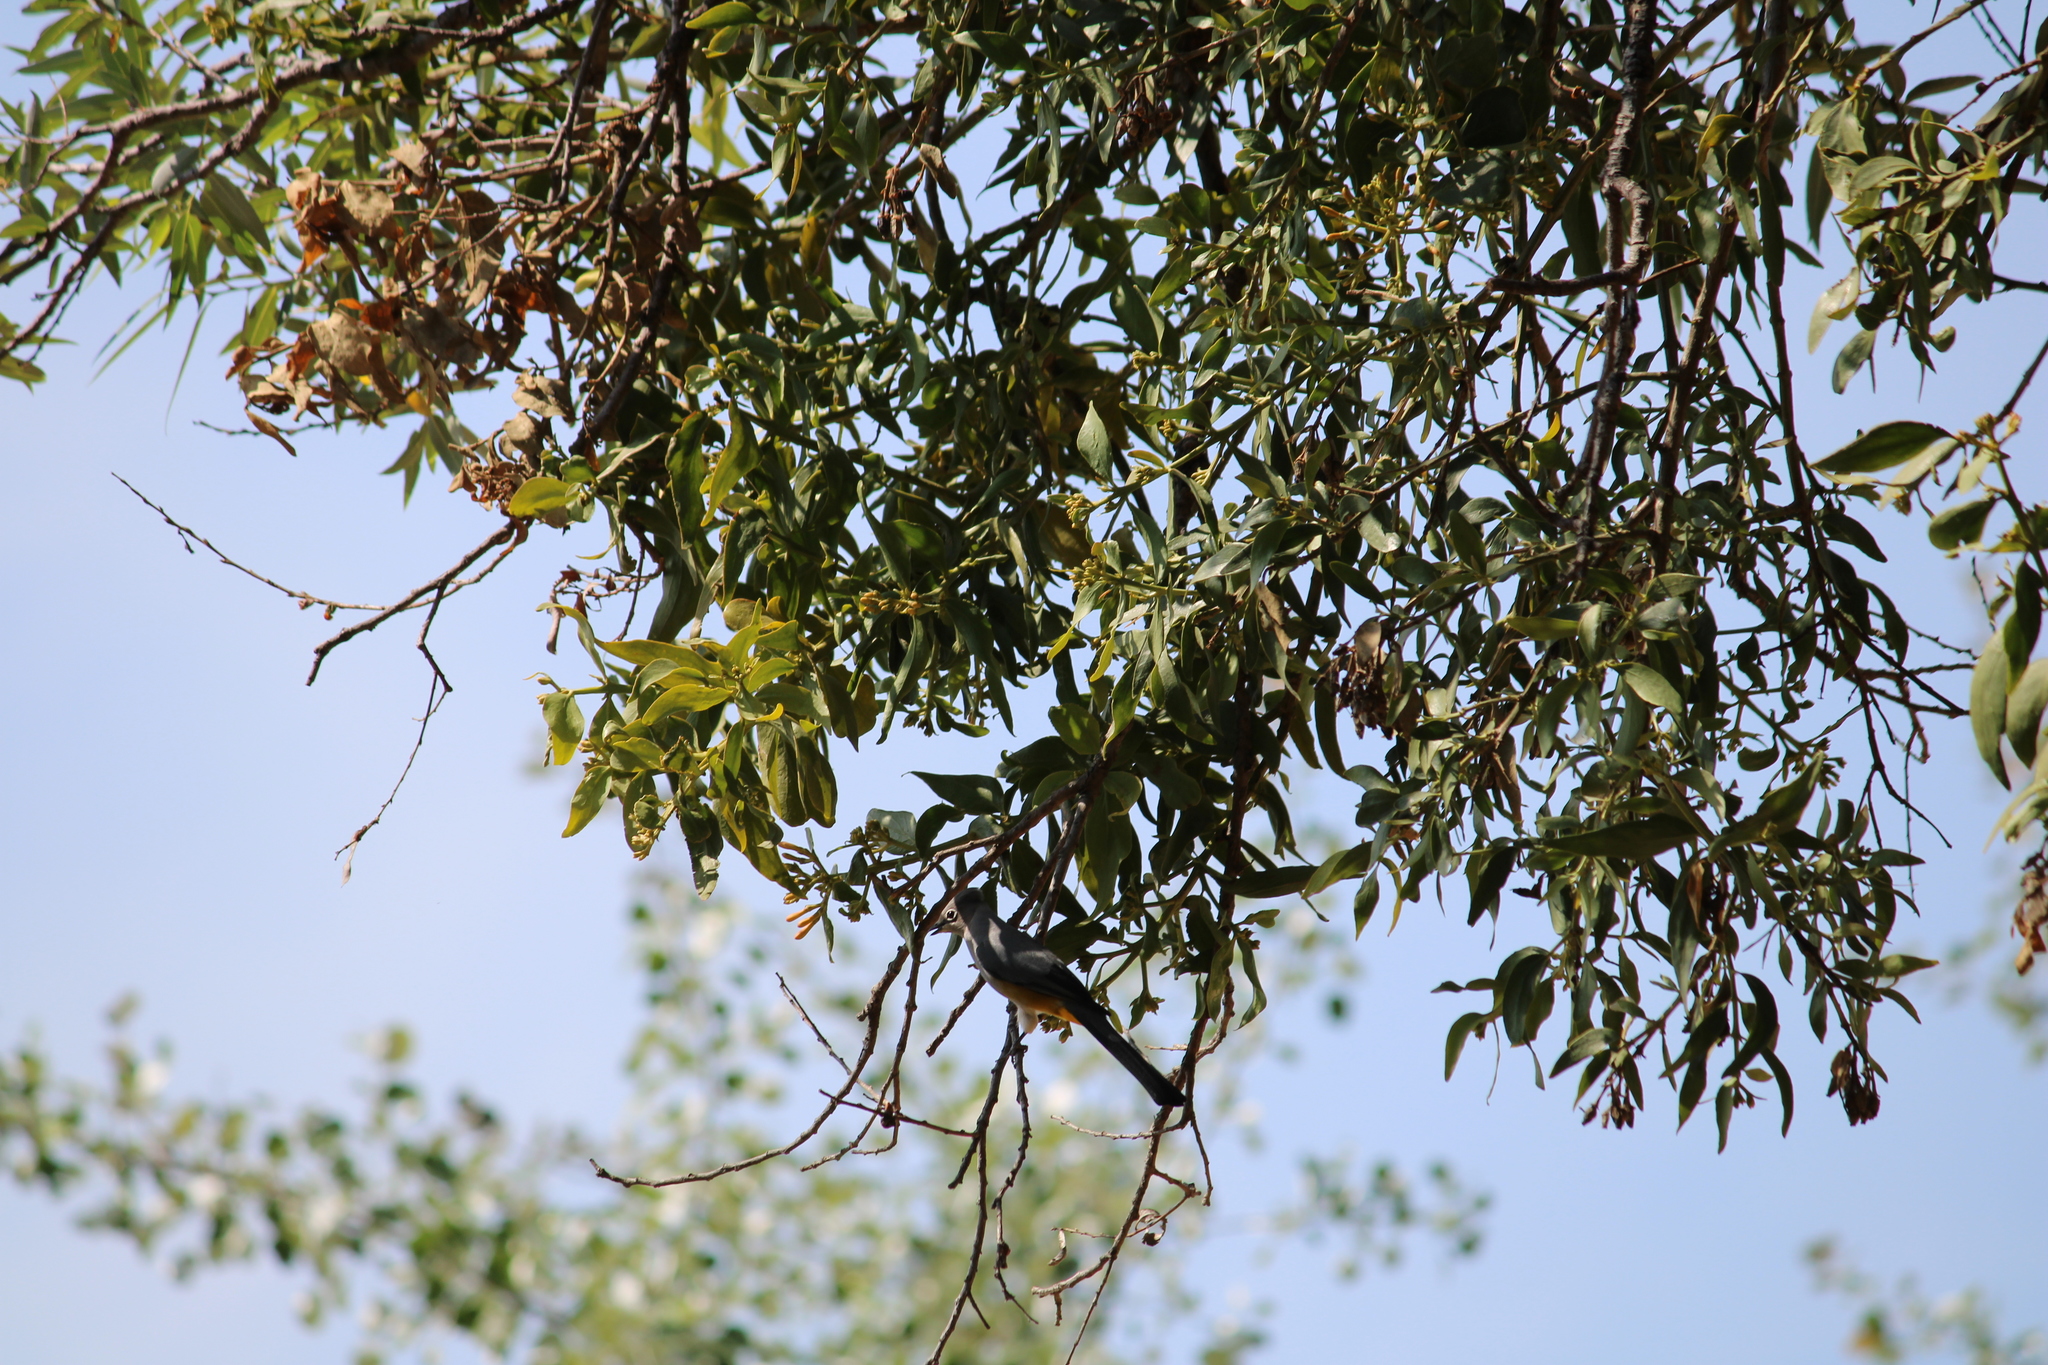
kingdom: Animalia
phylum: Chordata
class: Aves
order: Passeriformes
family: Ptilogonatidae
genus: Ptilogonys
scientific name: Ptilogonys cinereus
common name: Gray silky-flycatcher
